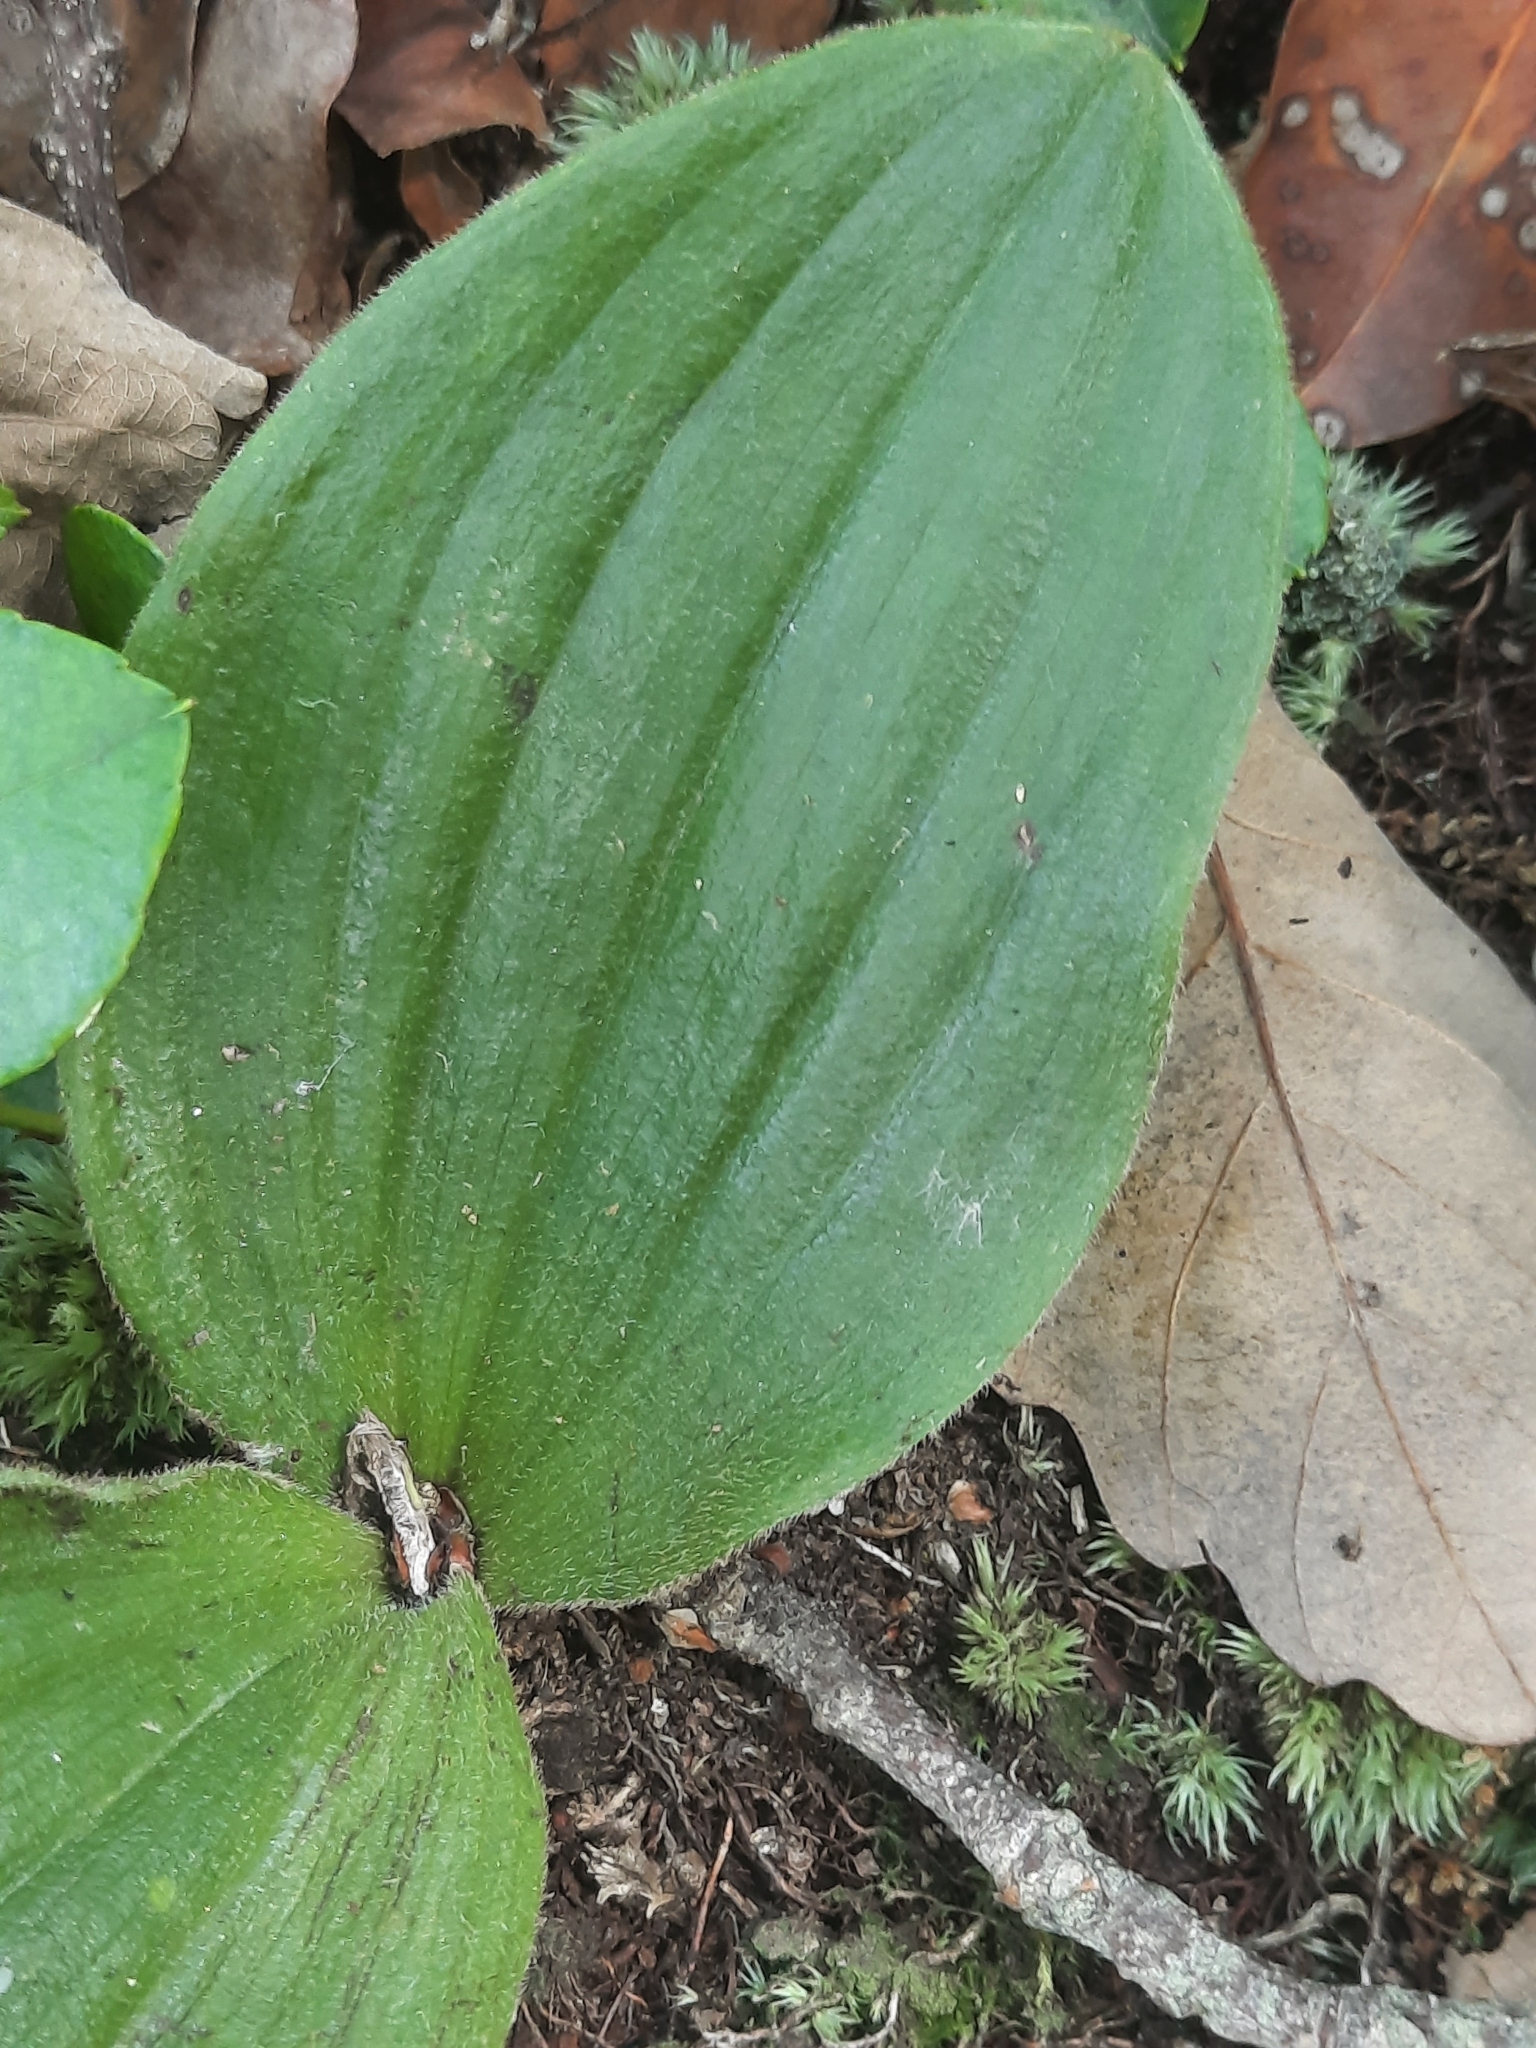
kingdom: Plantae
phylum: Tracheophyta
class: Liliopsida
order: Asparagales
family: Orchidaceae
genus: Cypripedium
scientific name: Cypripedium acaule
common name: Pink lady's-slipper
